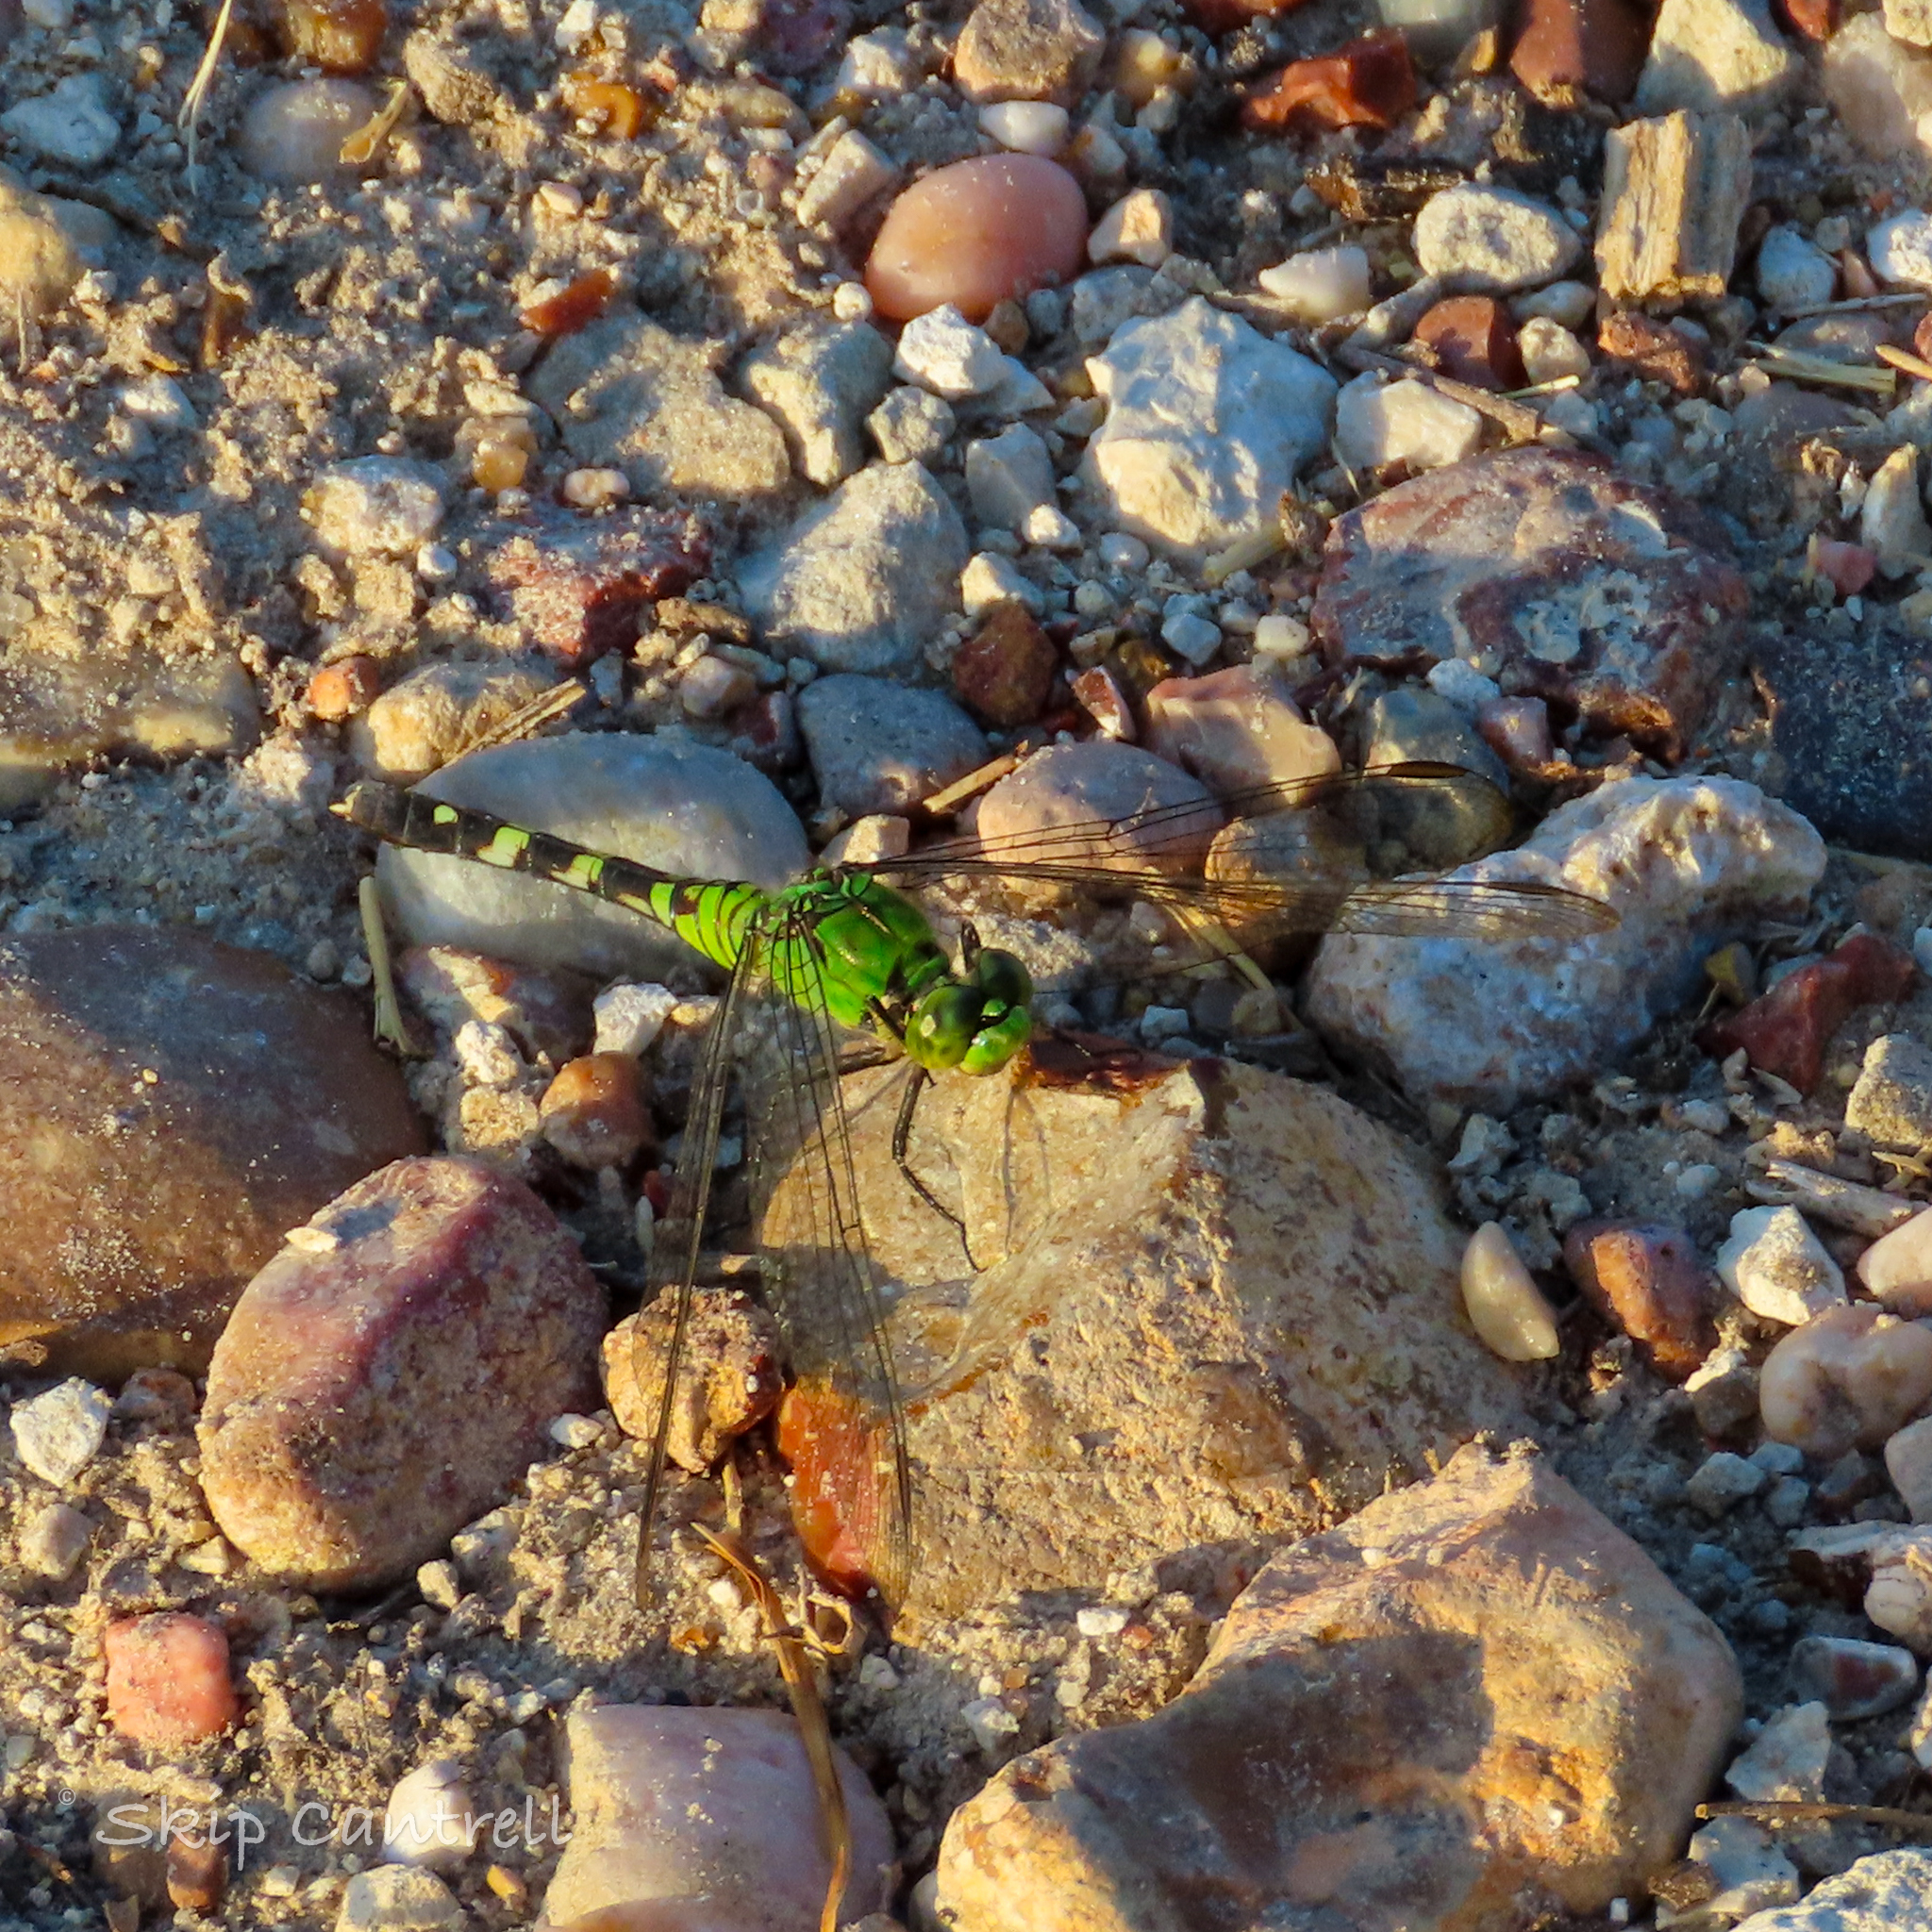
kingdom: Animalia
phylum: Arthropoda
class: Insecta
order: Odonata
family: Libellulidae
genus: Erythemis
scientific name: Erythemis simplicicollis
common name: Eastern pondhawk
